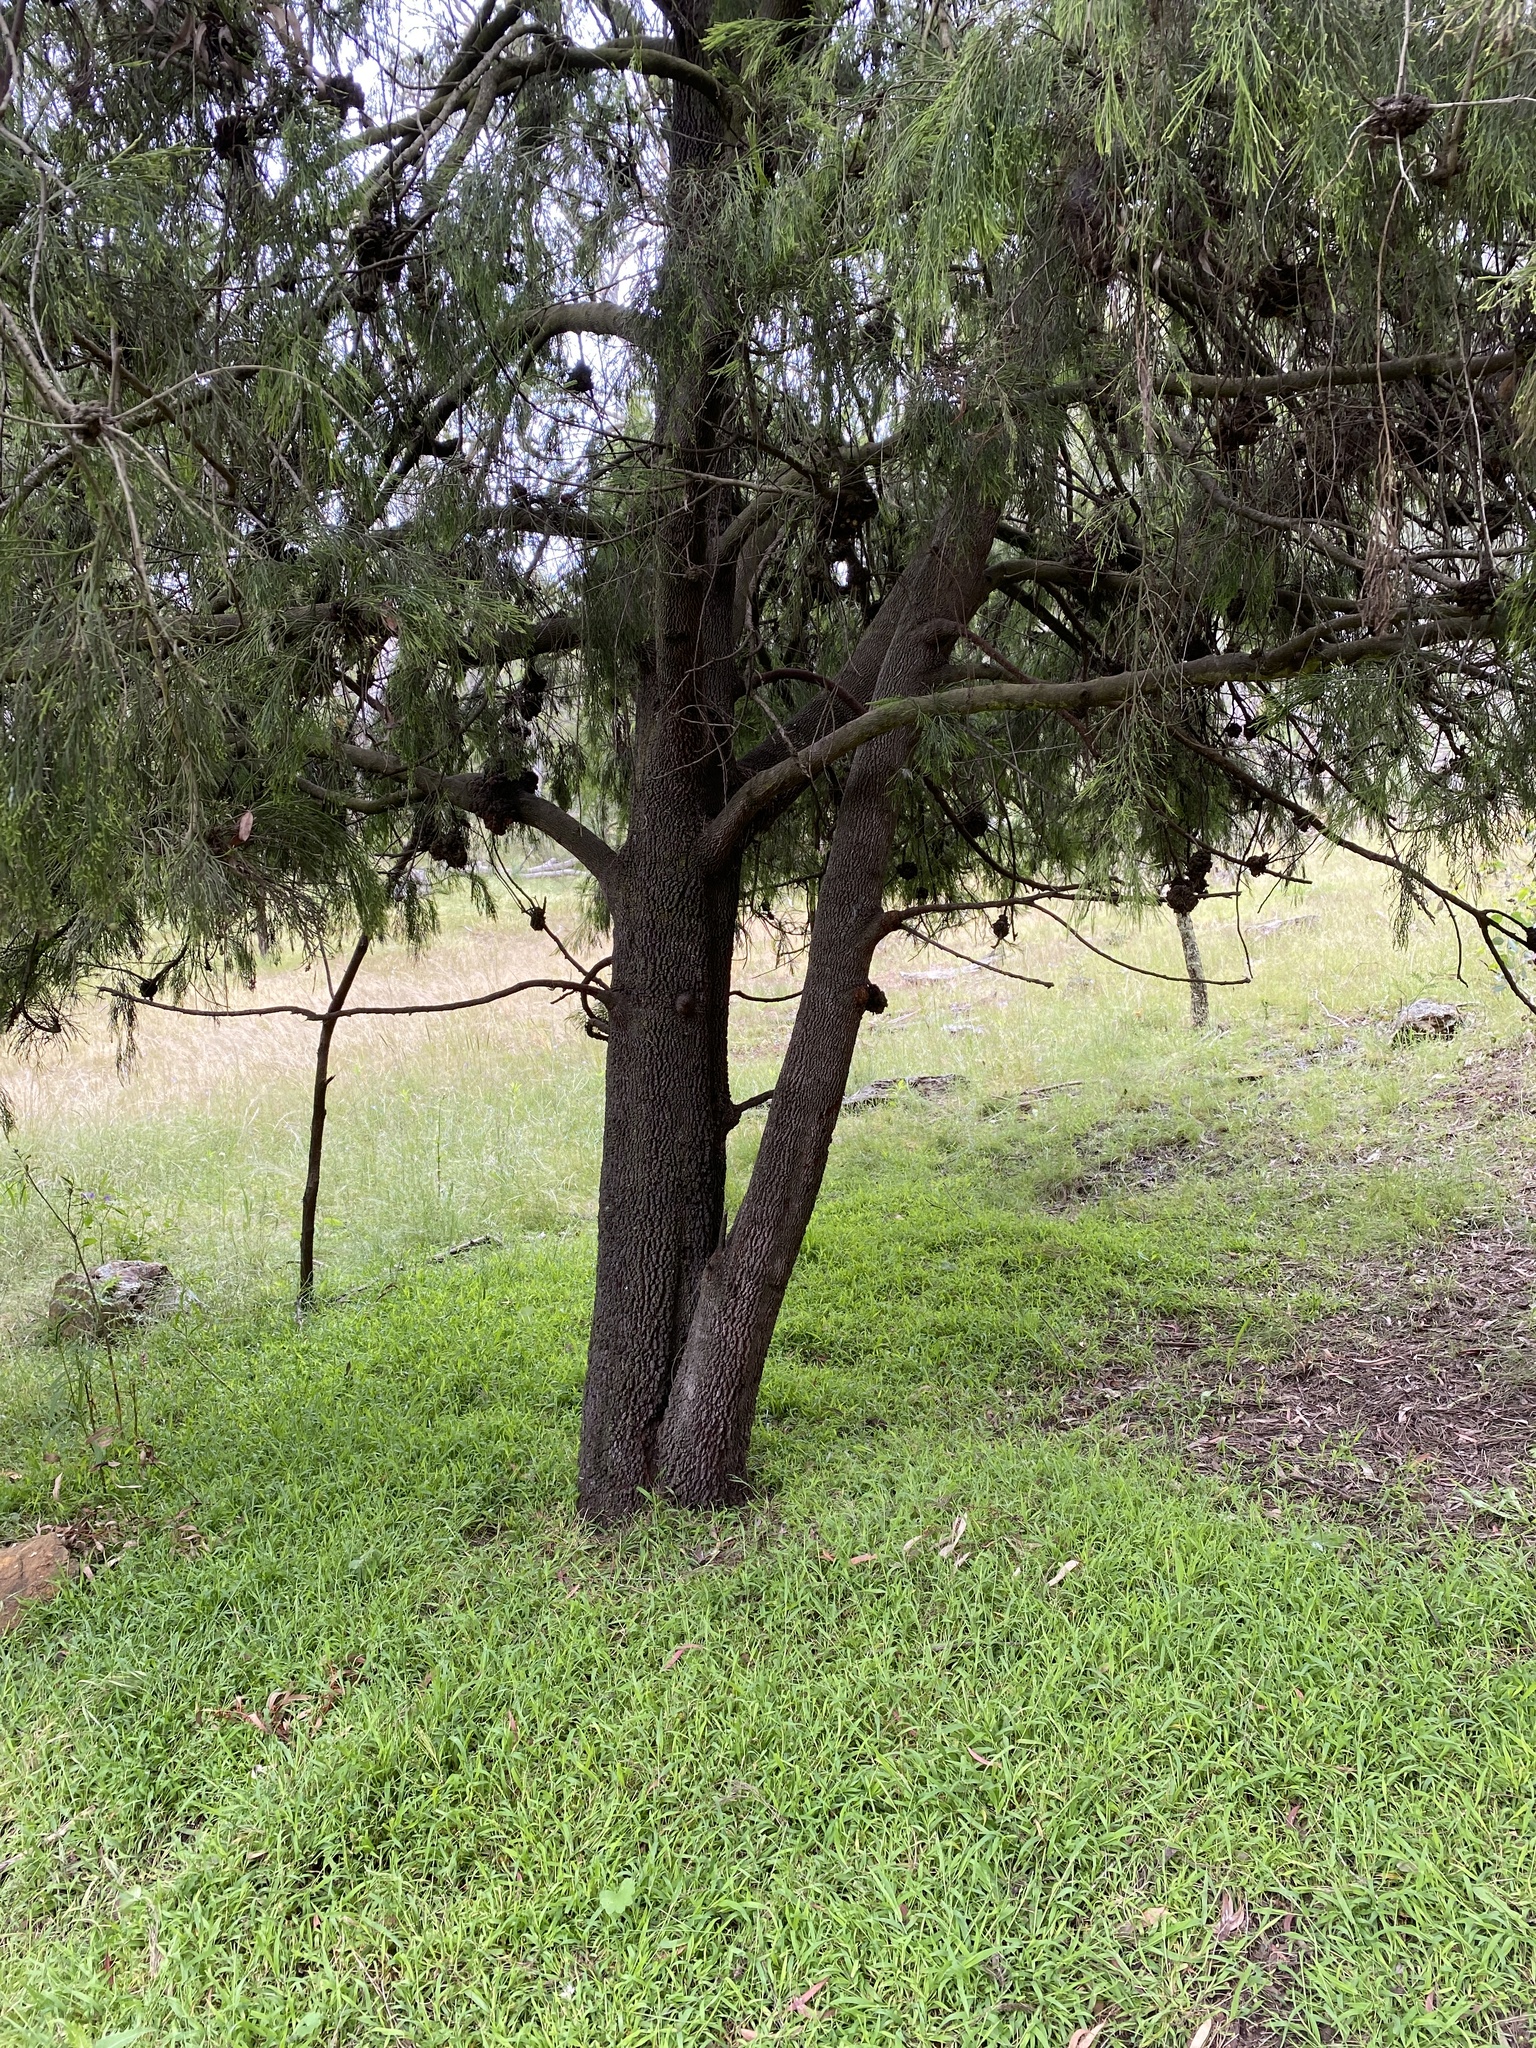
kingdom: Plantae
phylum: Tracheophyta
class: Magnoliopsida
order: Santalales
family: Santalaceae
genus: Exocarpos
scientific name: Exocarpos cupressiformis
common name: Cherry ballart
